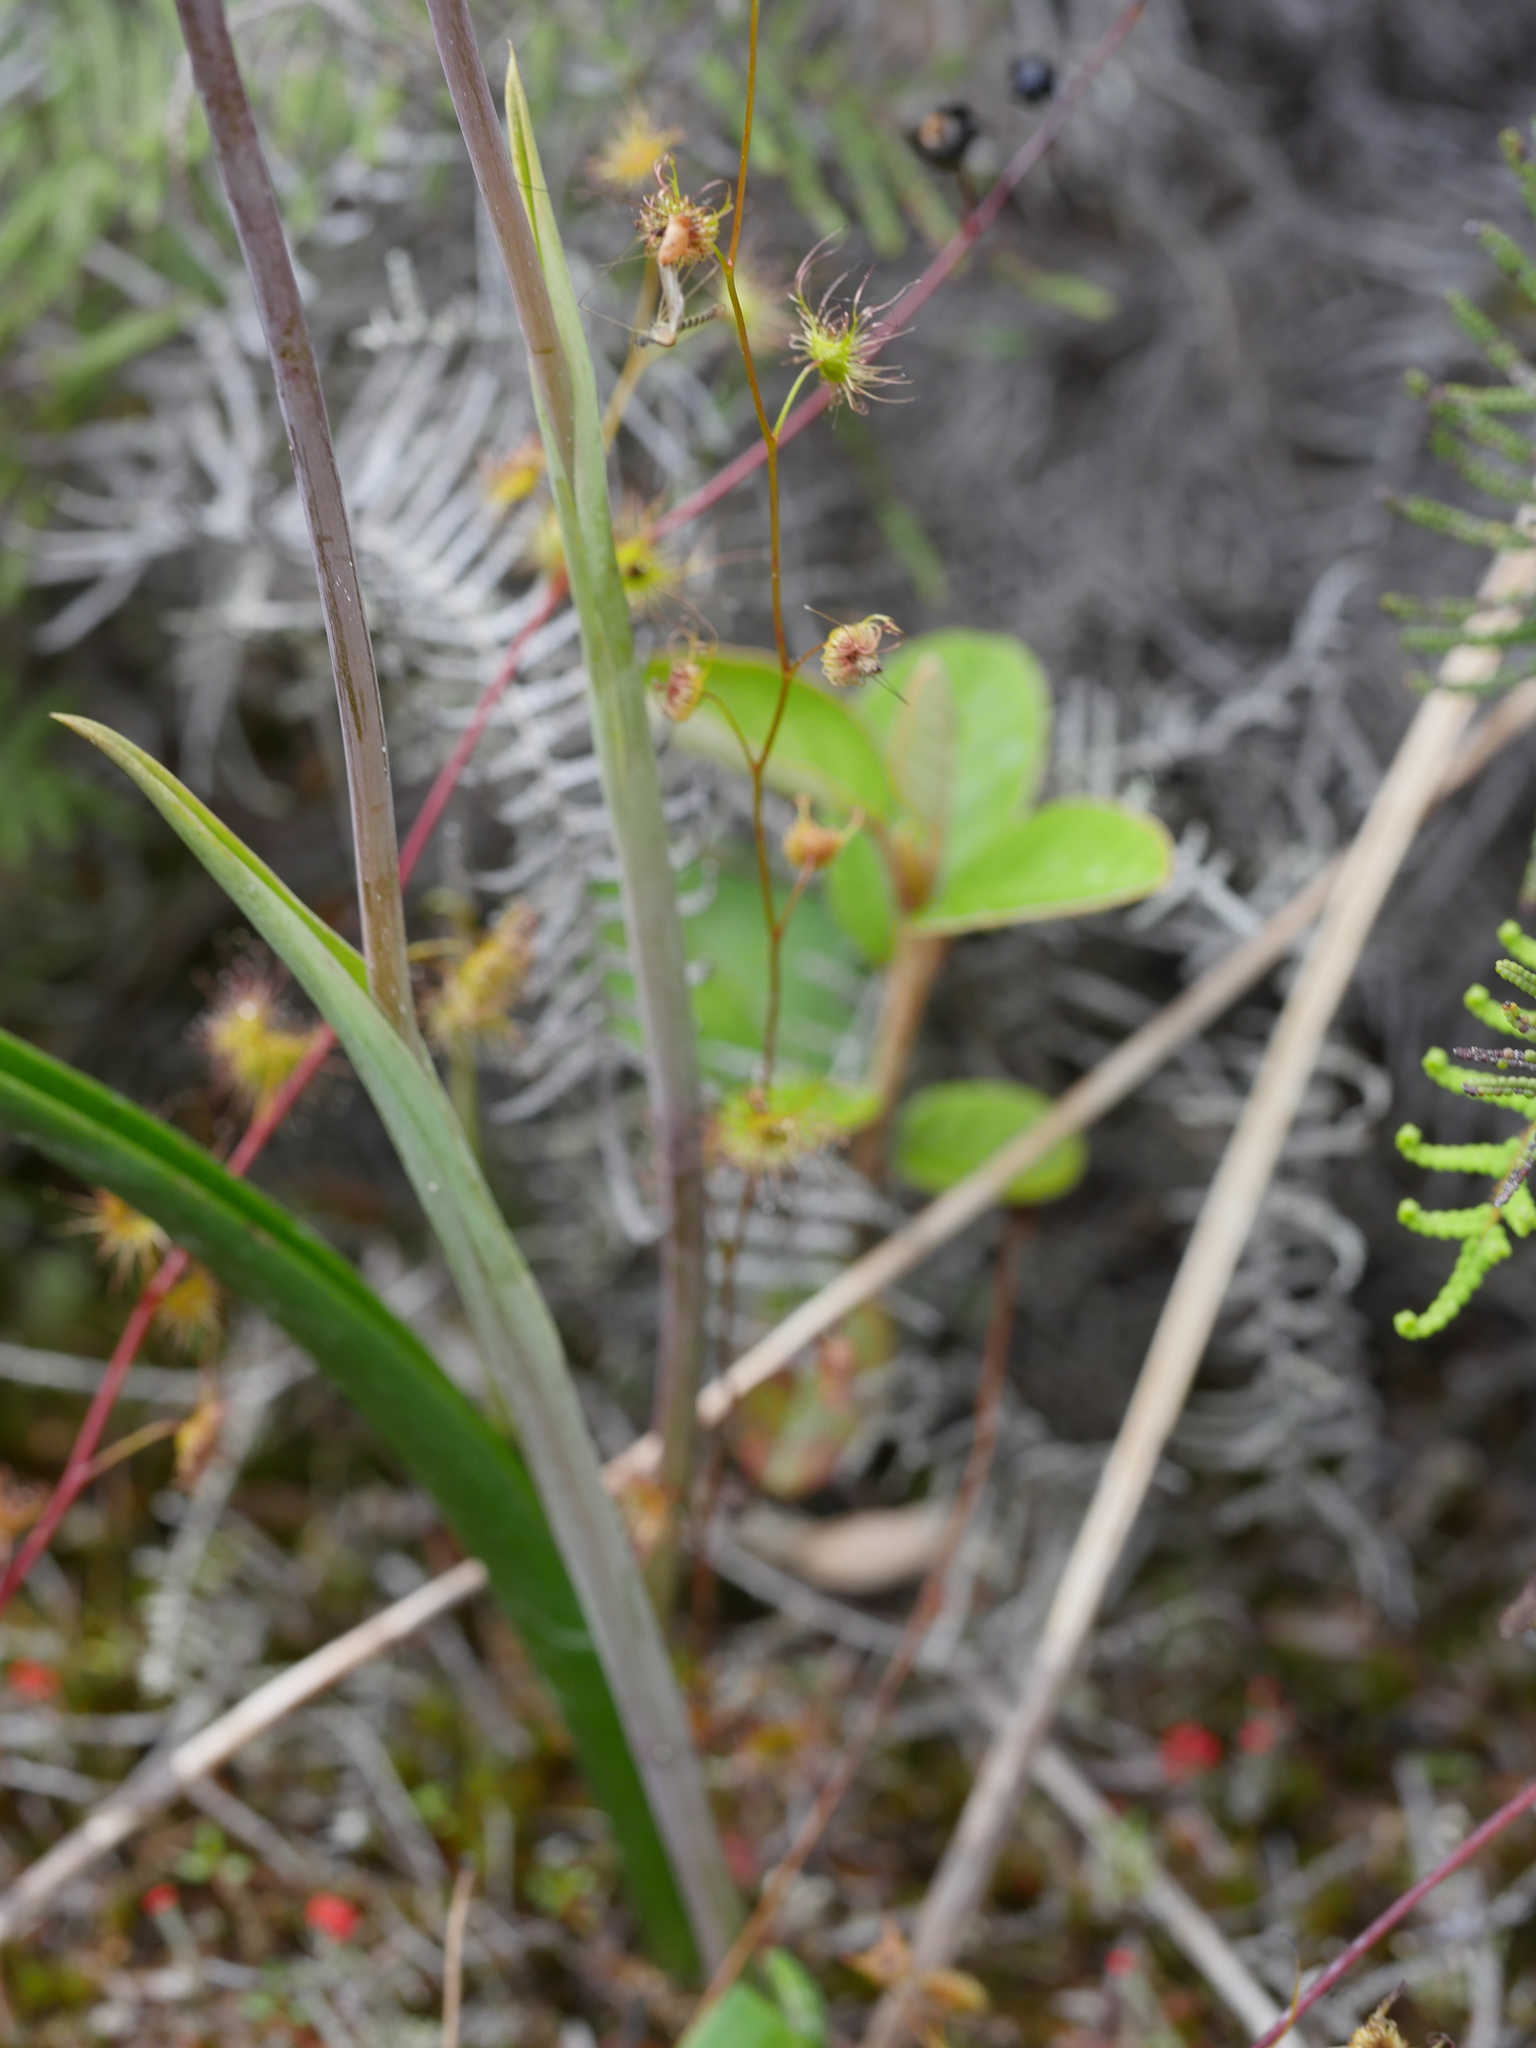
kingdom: Plantae
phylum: Tracheophyta
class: Magnoliopsida
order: Caryophyllales
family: Droseraceae
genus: Drosera
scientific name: Drosera peltata
